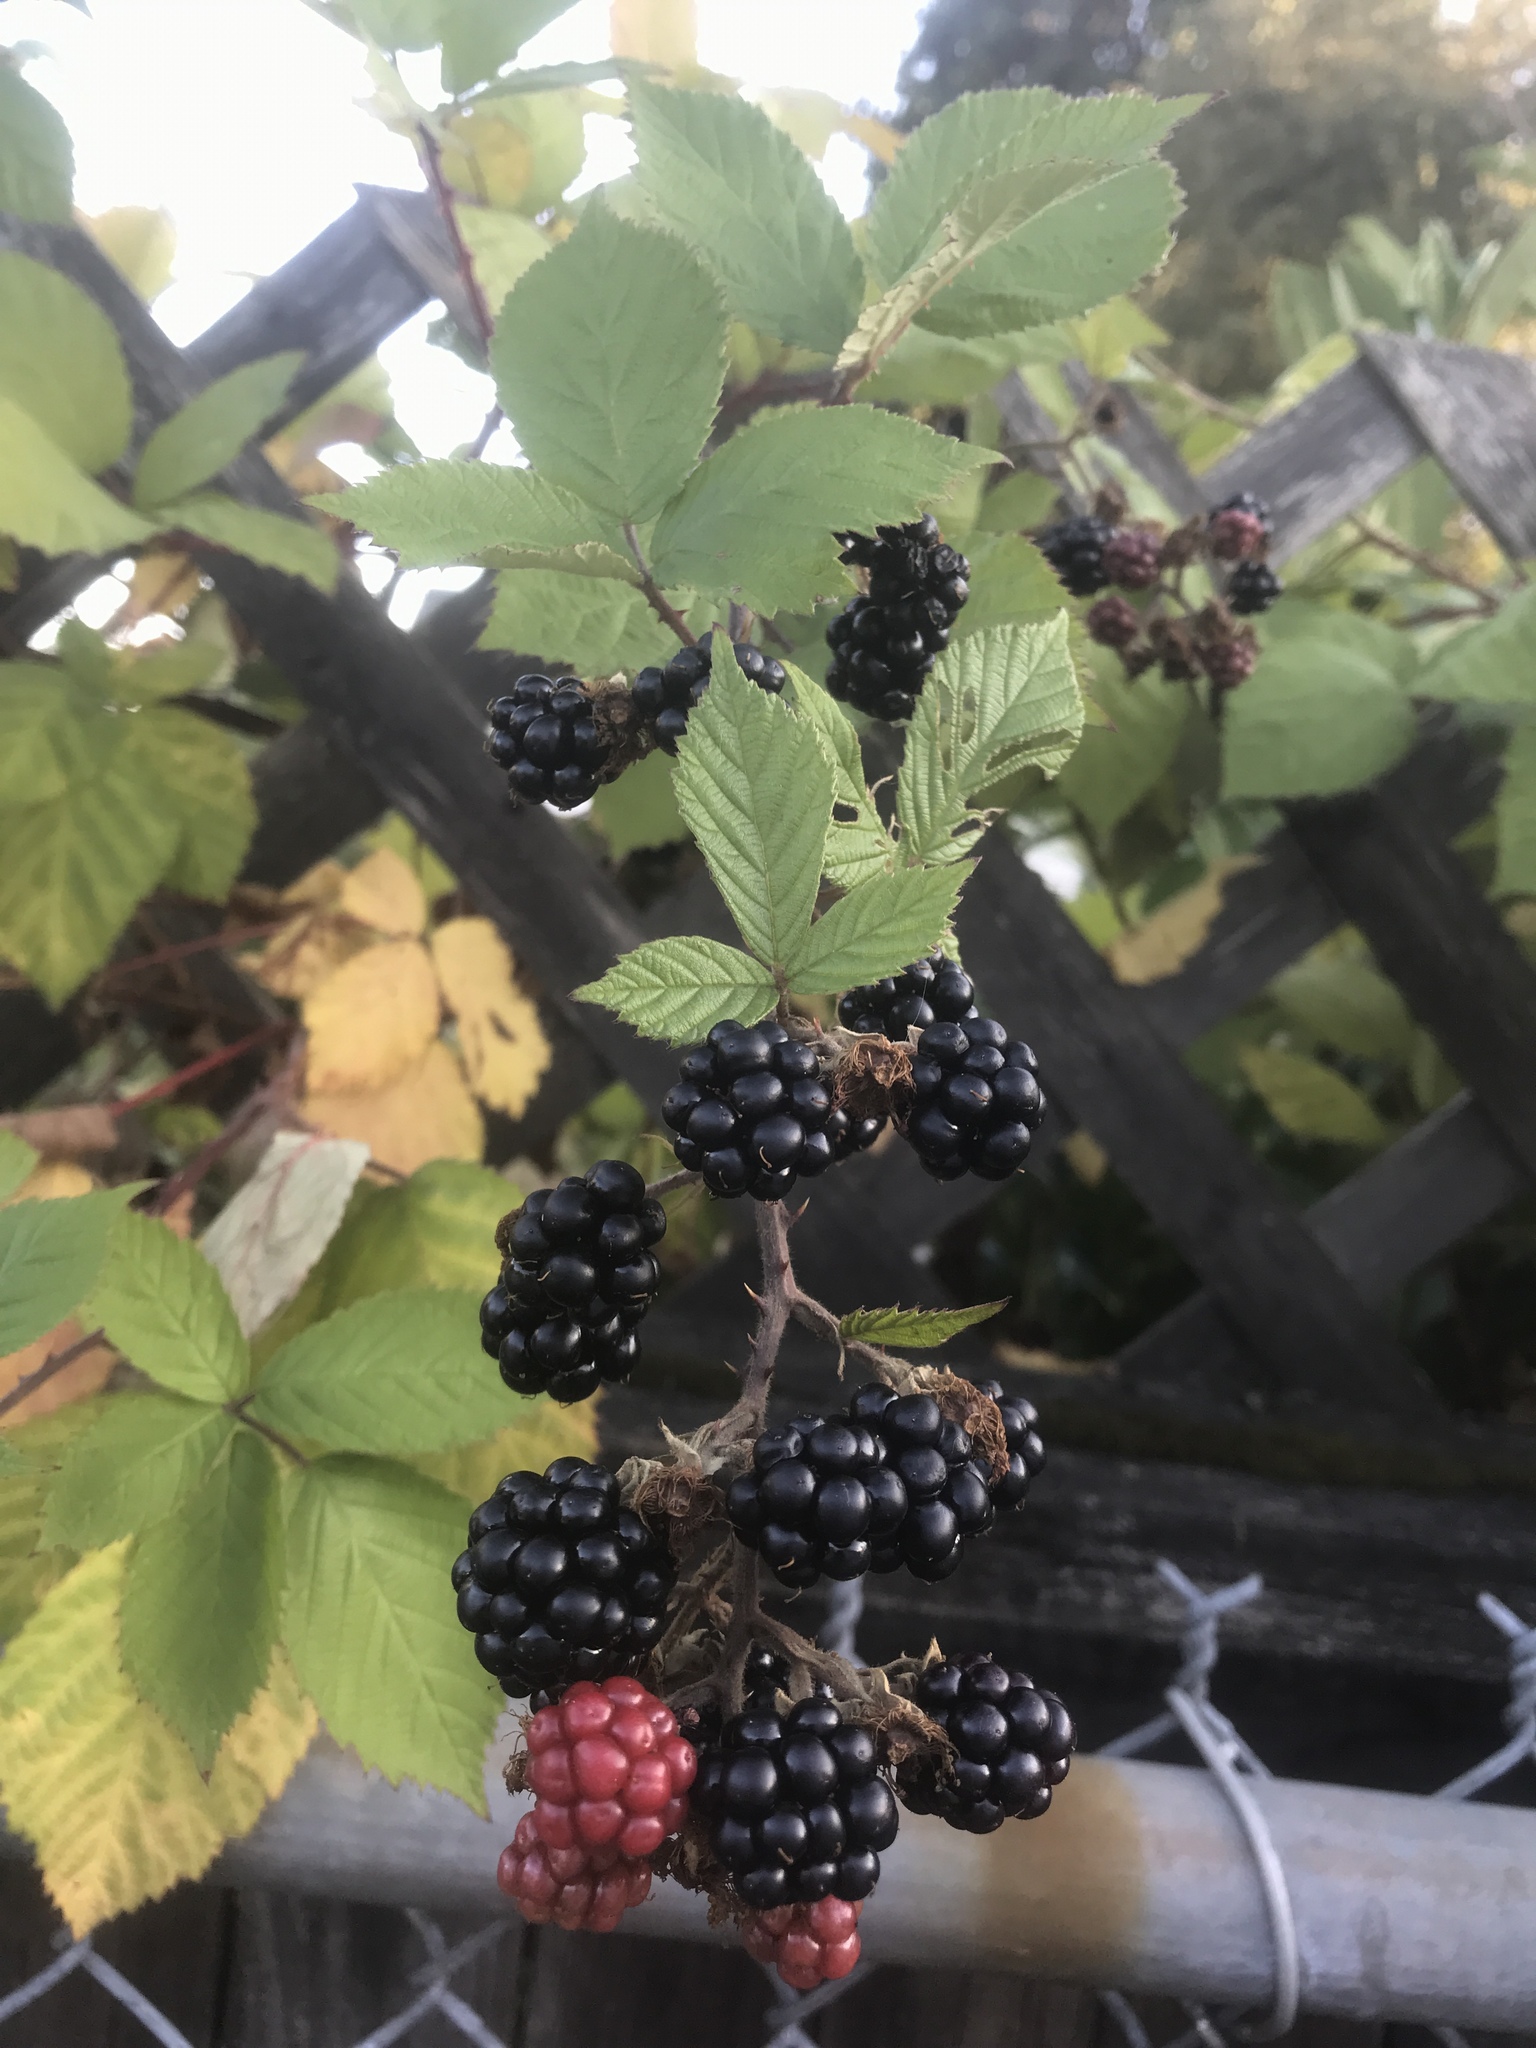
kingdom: Plantae
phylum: Tracheophyta
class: Magnoliopsida
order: Rosales
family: Rosaceae
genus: Rubus
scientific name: Rubus bifrons
